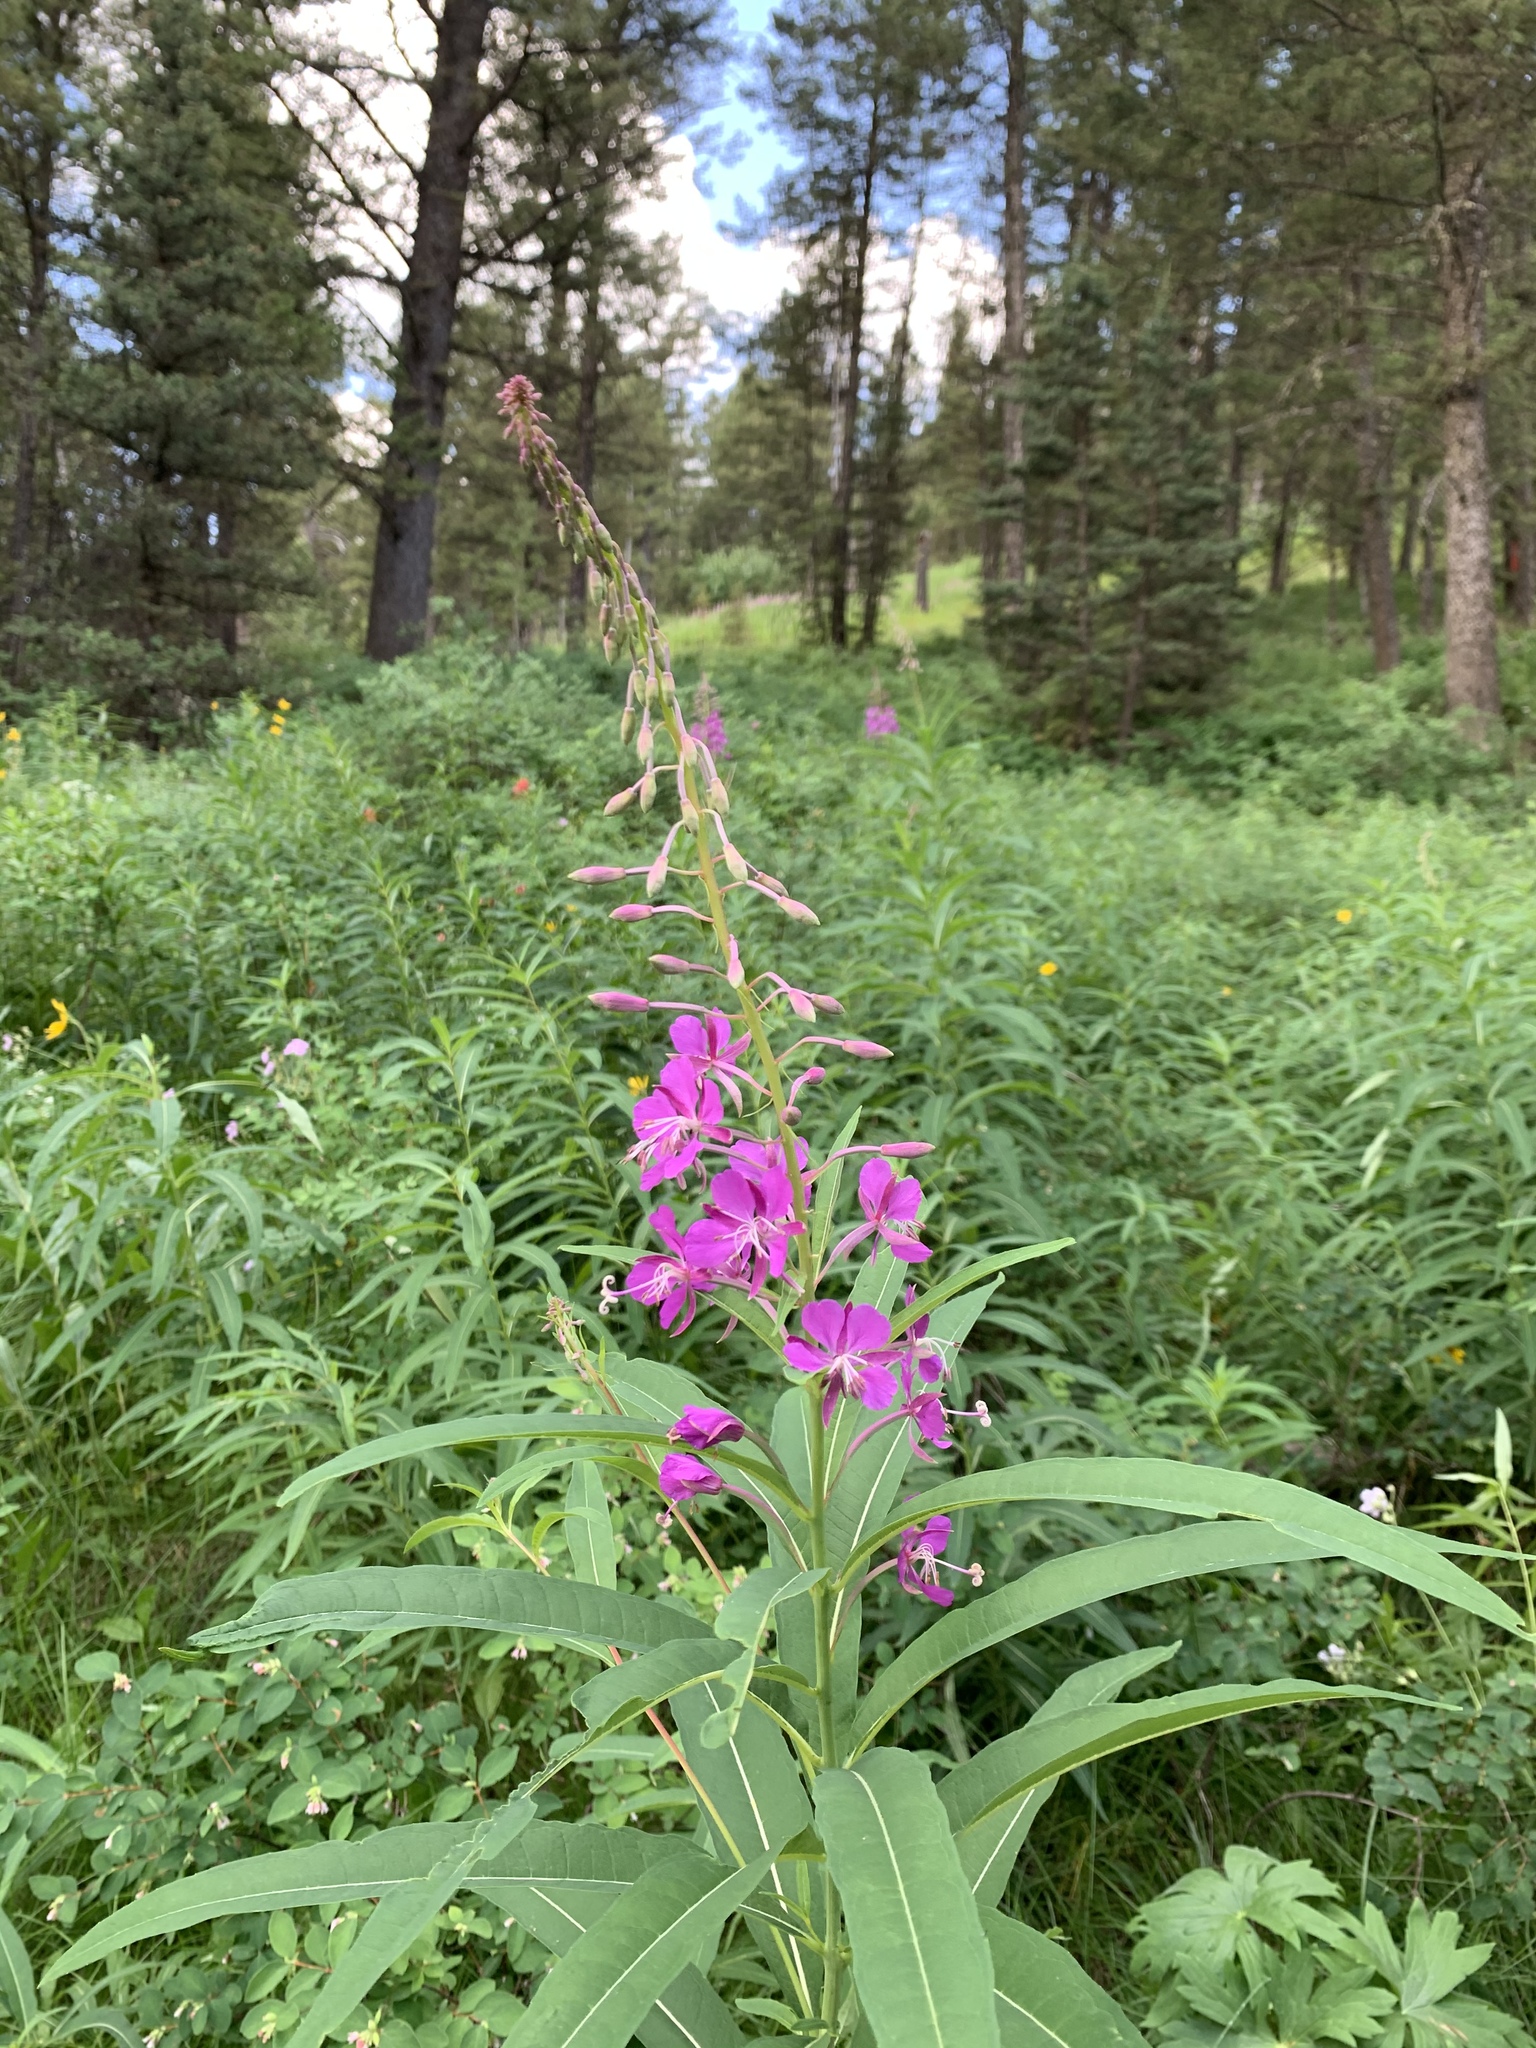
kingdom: Plantae
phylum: Tracheophyta
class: Magnoliopsida
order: Myrtales
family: Onagraceae
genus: Chamaenerion
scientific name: Chamaenerion angustifolium
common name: Fireweed
